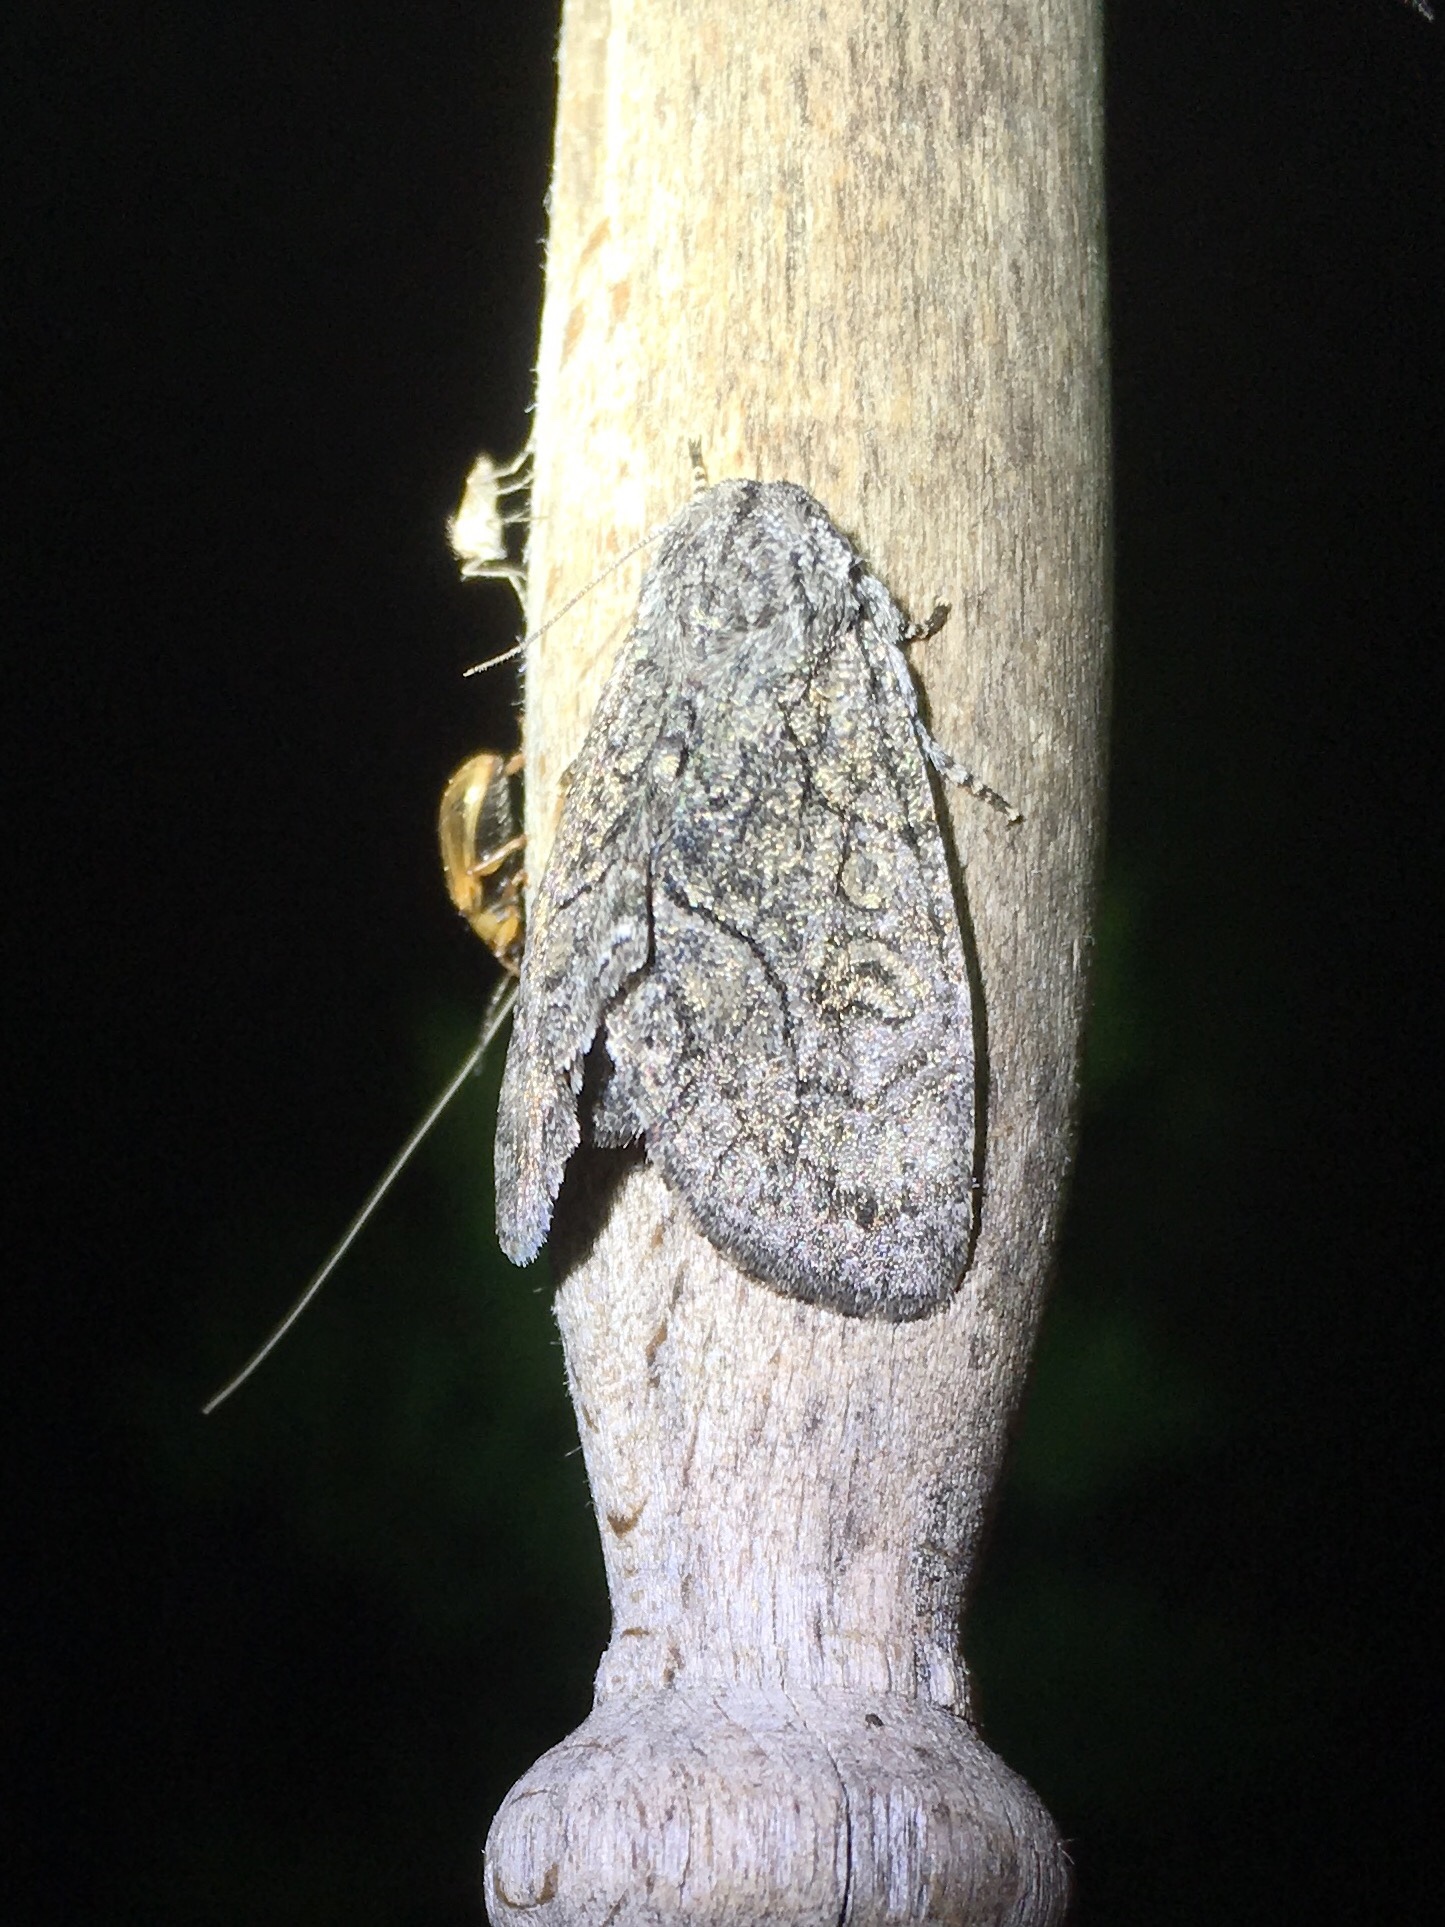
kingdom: Animalia
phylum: Arthropoda
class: Insecta
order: Lepidoptera
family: Noctuidae
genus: Raphia
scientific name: Raphia frater
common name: Brother
